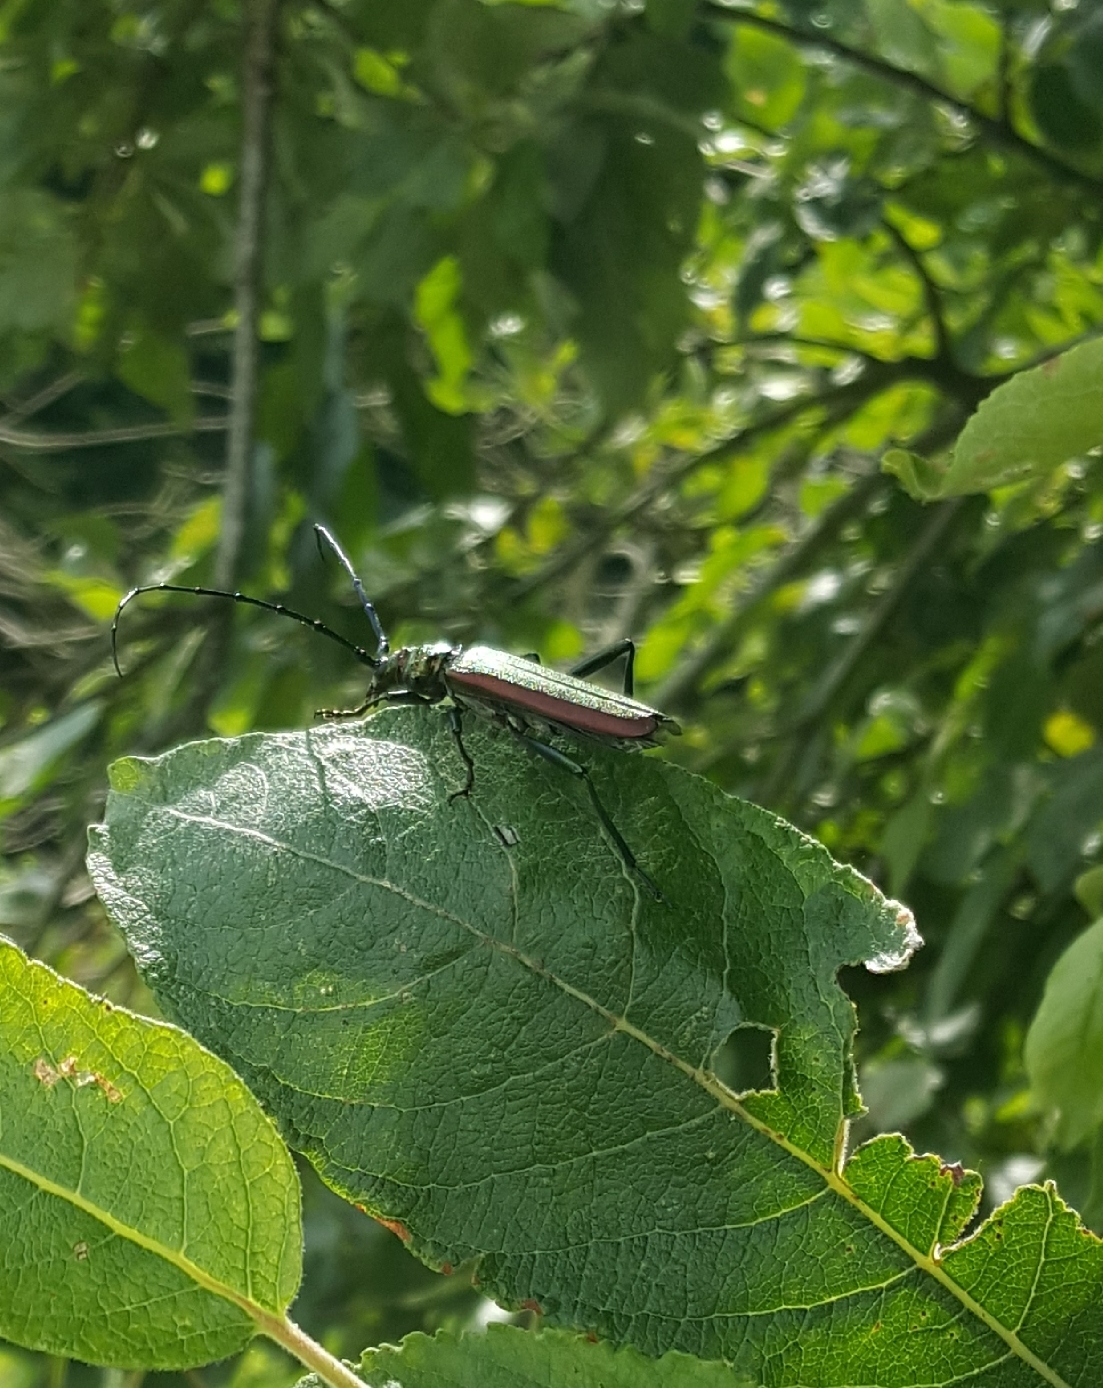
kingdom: Animalia
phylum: Arthropoda
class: Insecta
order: Coleoptera
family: Cerambycidae
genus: Aromia
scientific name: Aromia moschata
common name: Musk beetle
